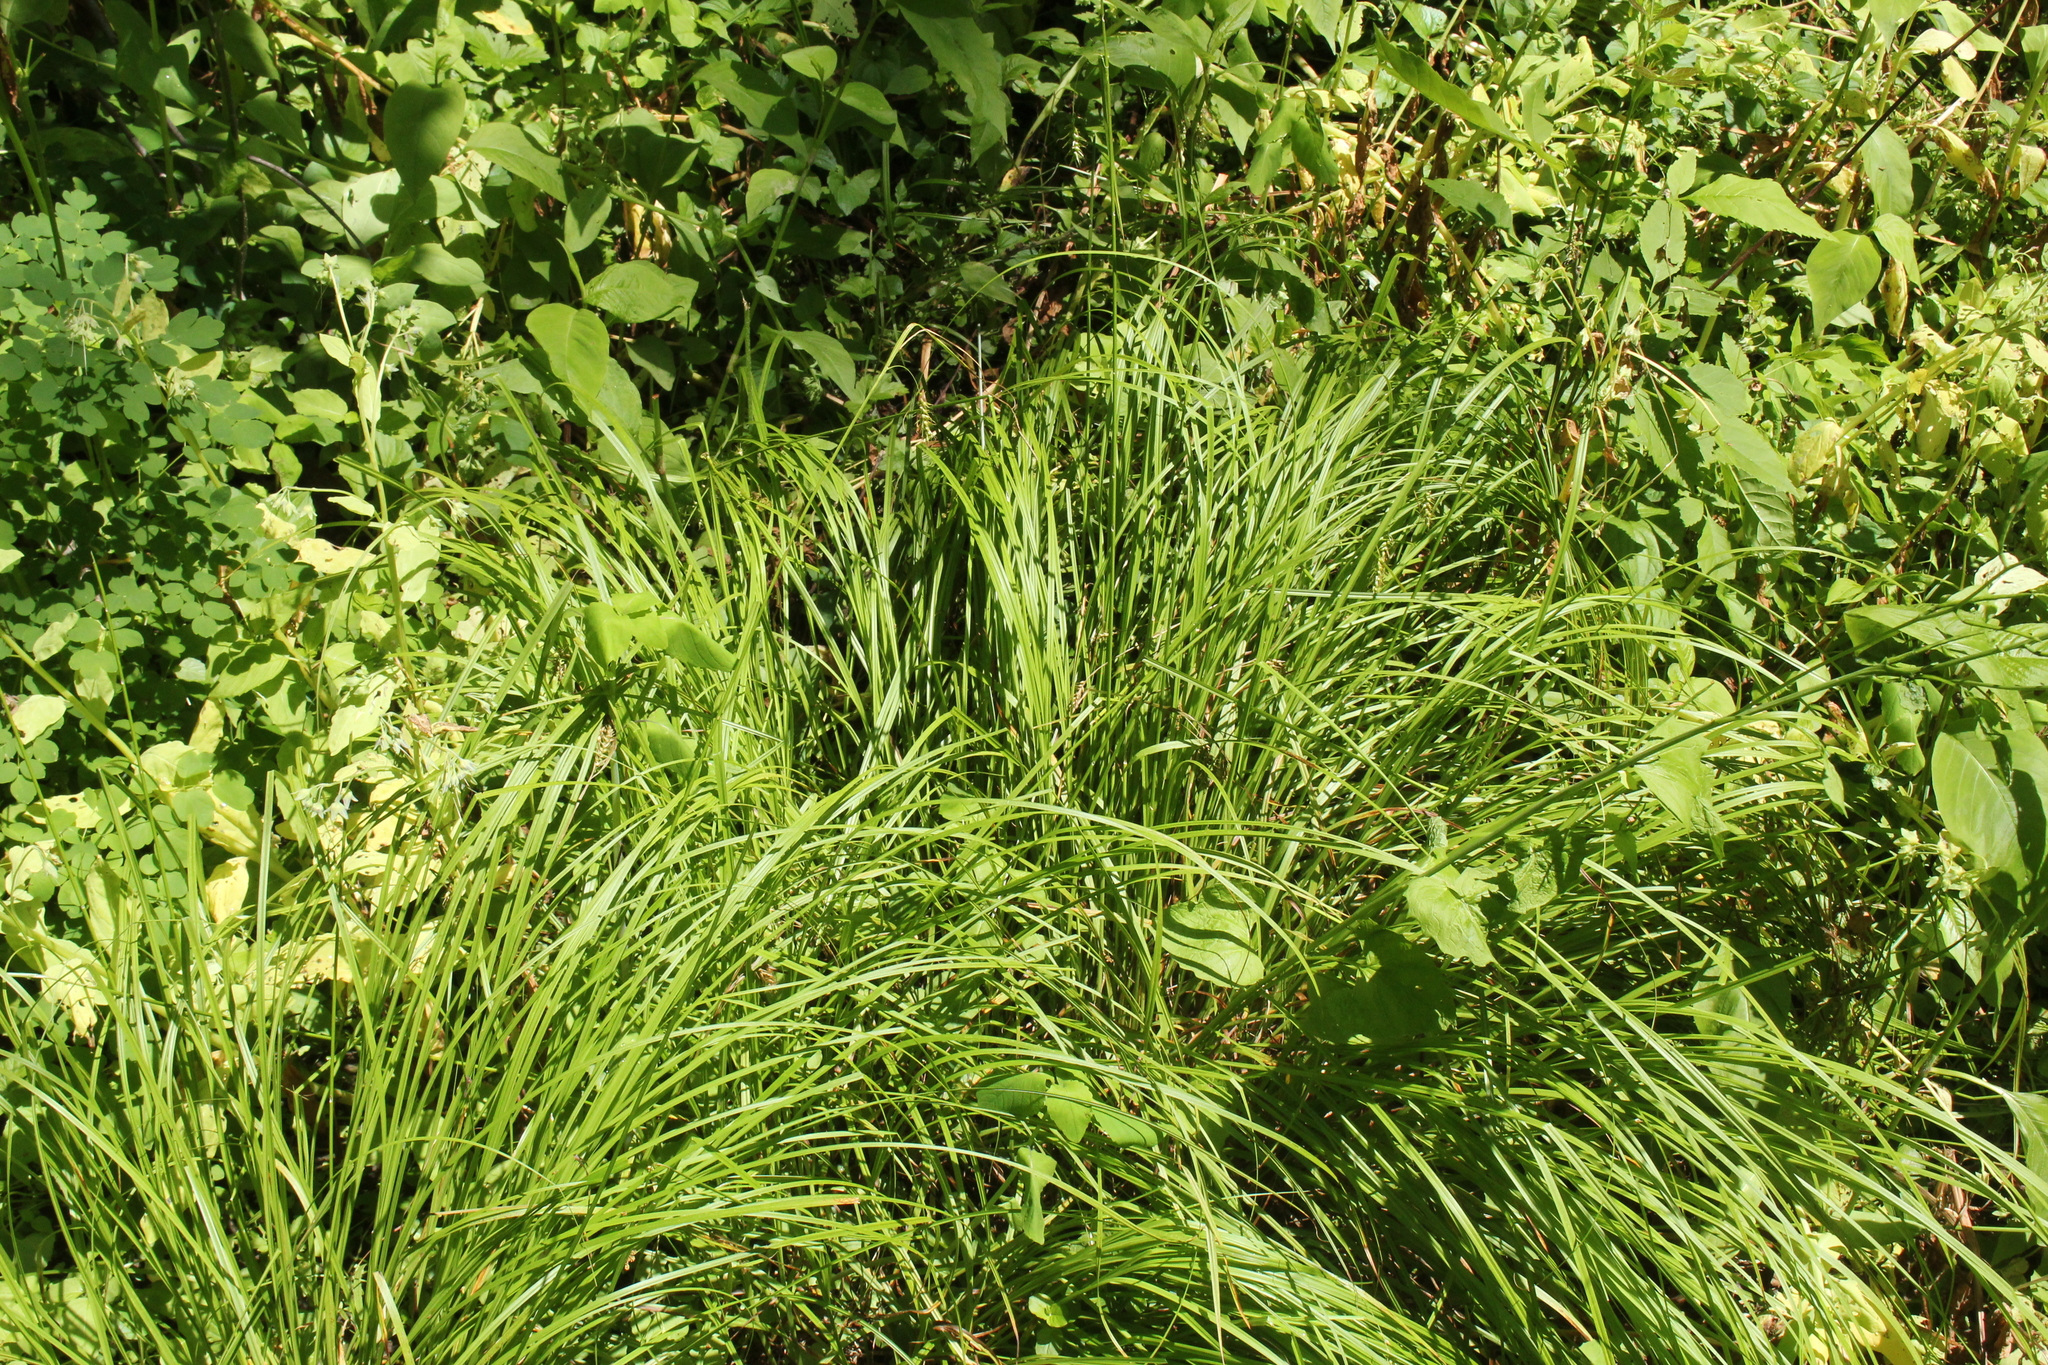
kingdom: Plantae
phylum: Tracheophyta
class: Liliopsida
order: Poales
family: Cyperaceae
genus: Carex
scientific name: Carex sprengelii
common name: Long-beaked sedge
